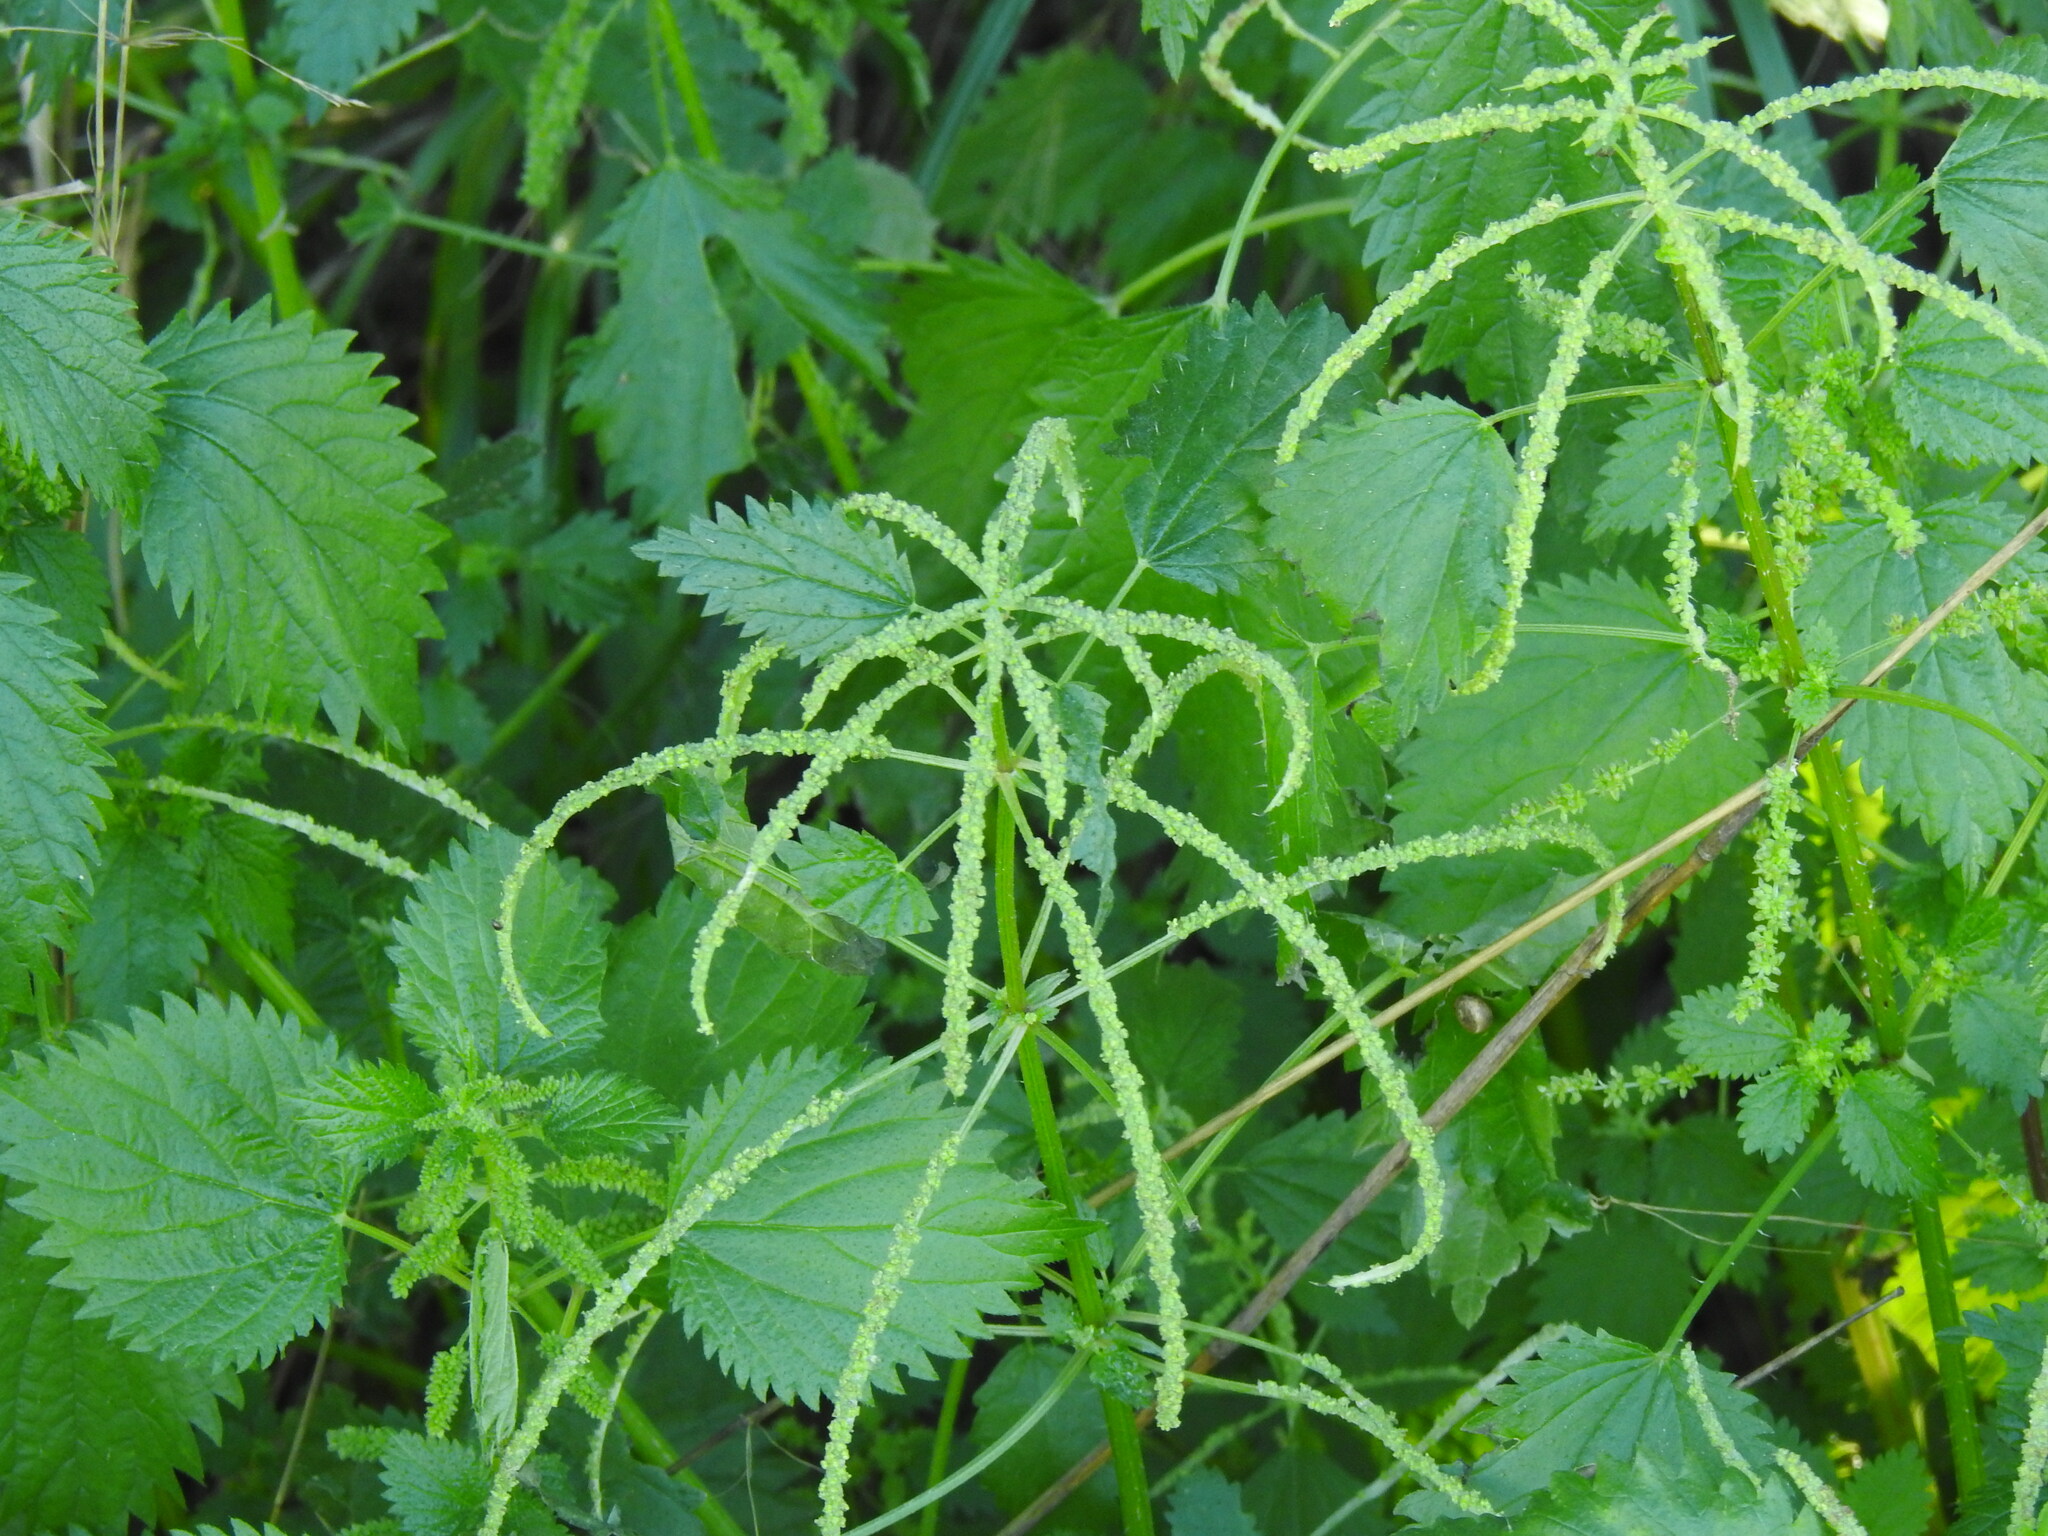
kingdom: Plantae
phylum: Tracheophyta
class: Magnoliopsida
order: Rosales
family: Urticaceae
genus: Urtica
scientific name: Urtica membranacea
